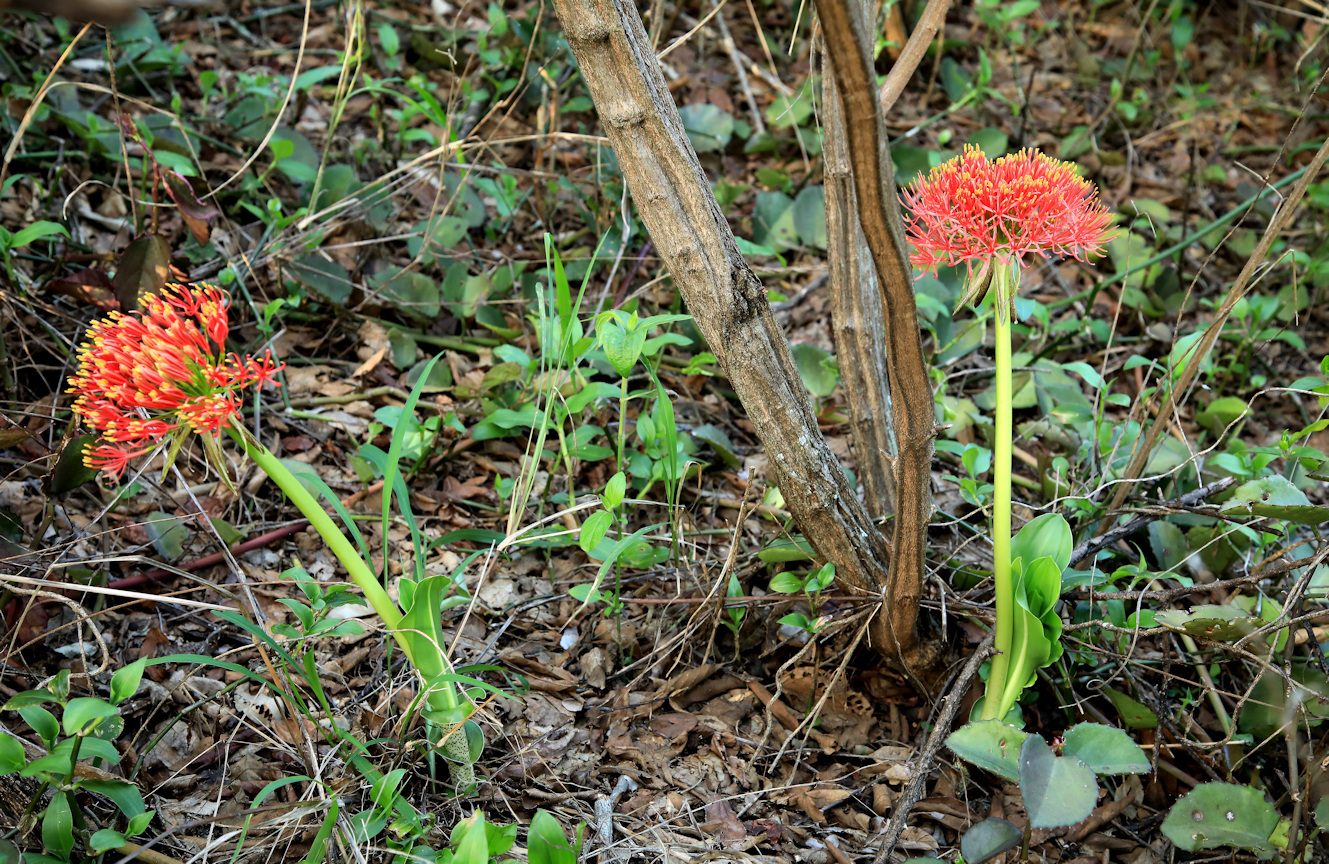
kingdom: Plantae
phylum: Tracheophyta
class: Liliopsida
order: Asparagales
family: Amaryllidaceae
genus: Scadoxus
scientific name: Scadoxus multiflorus
